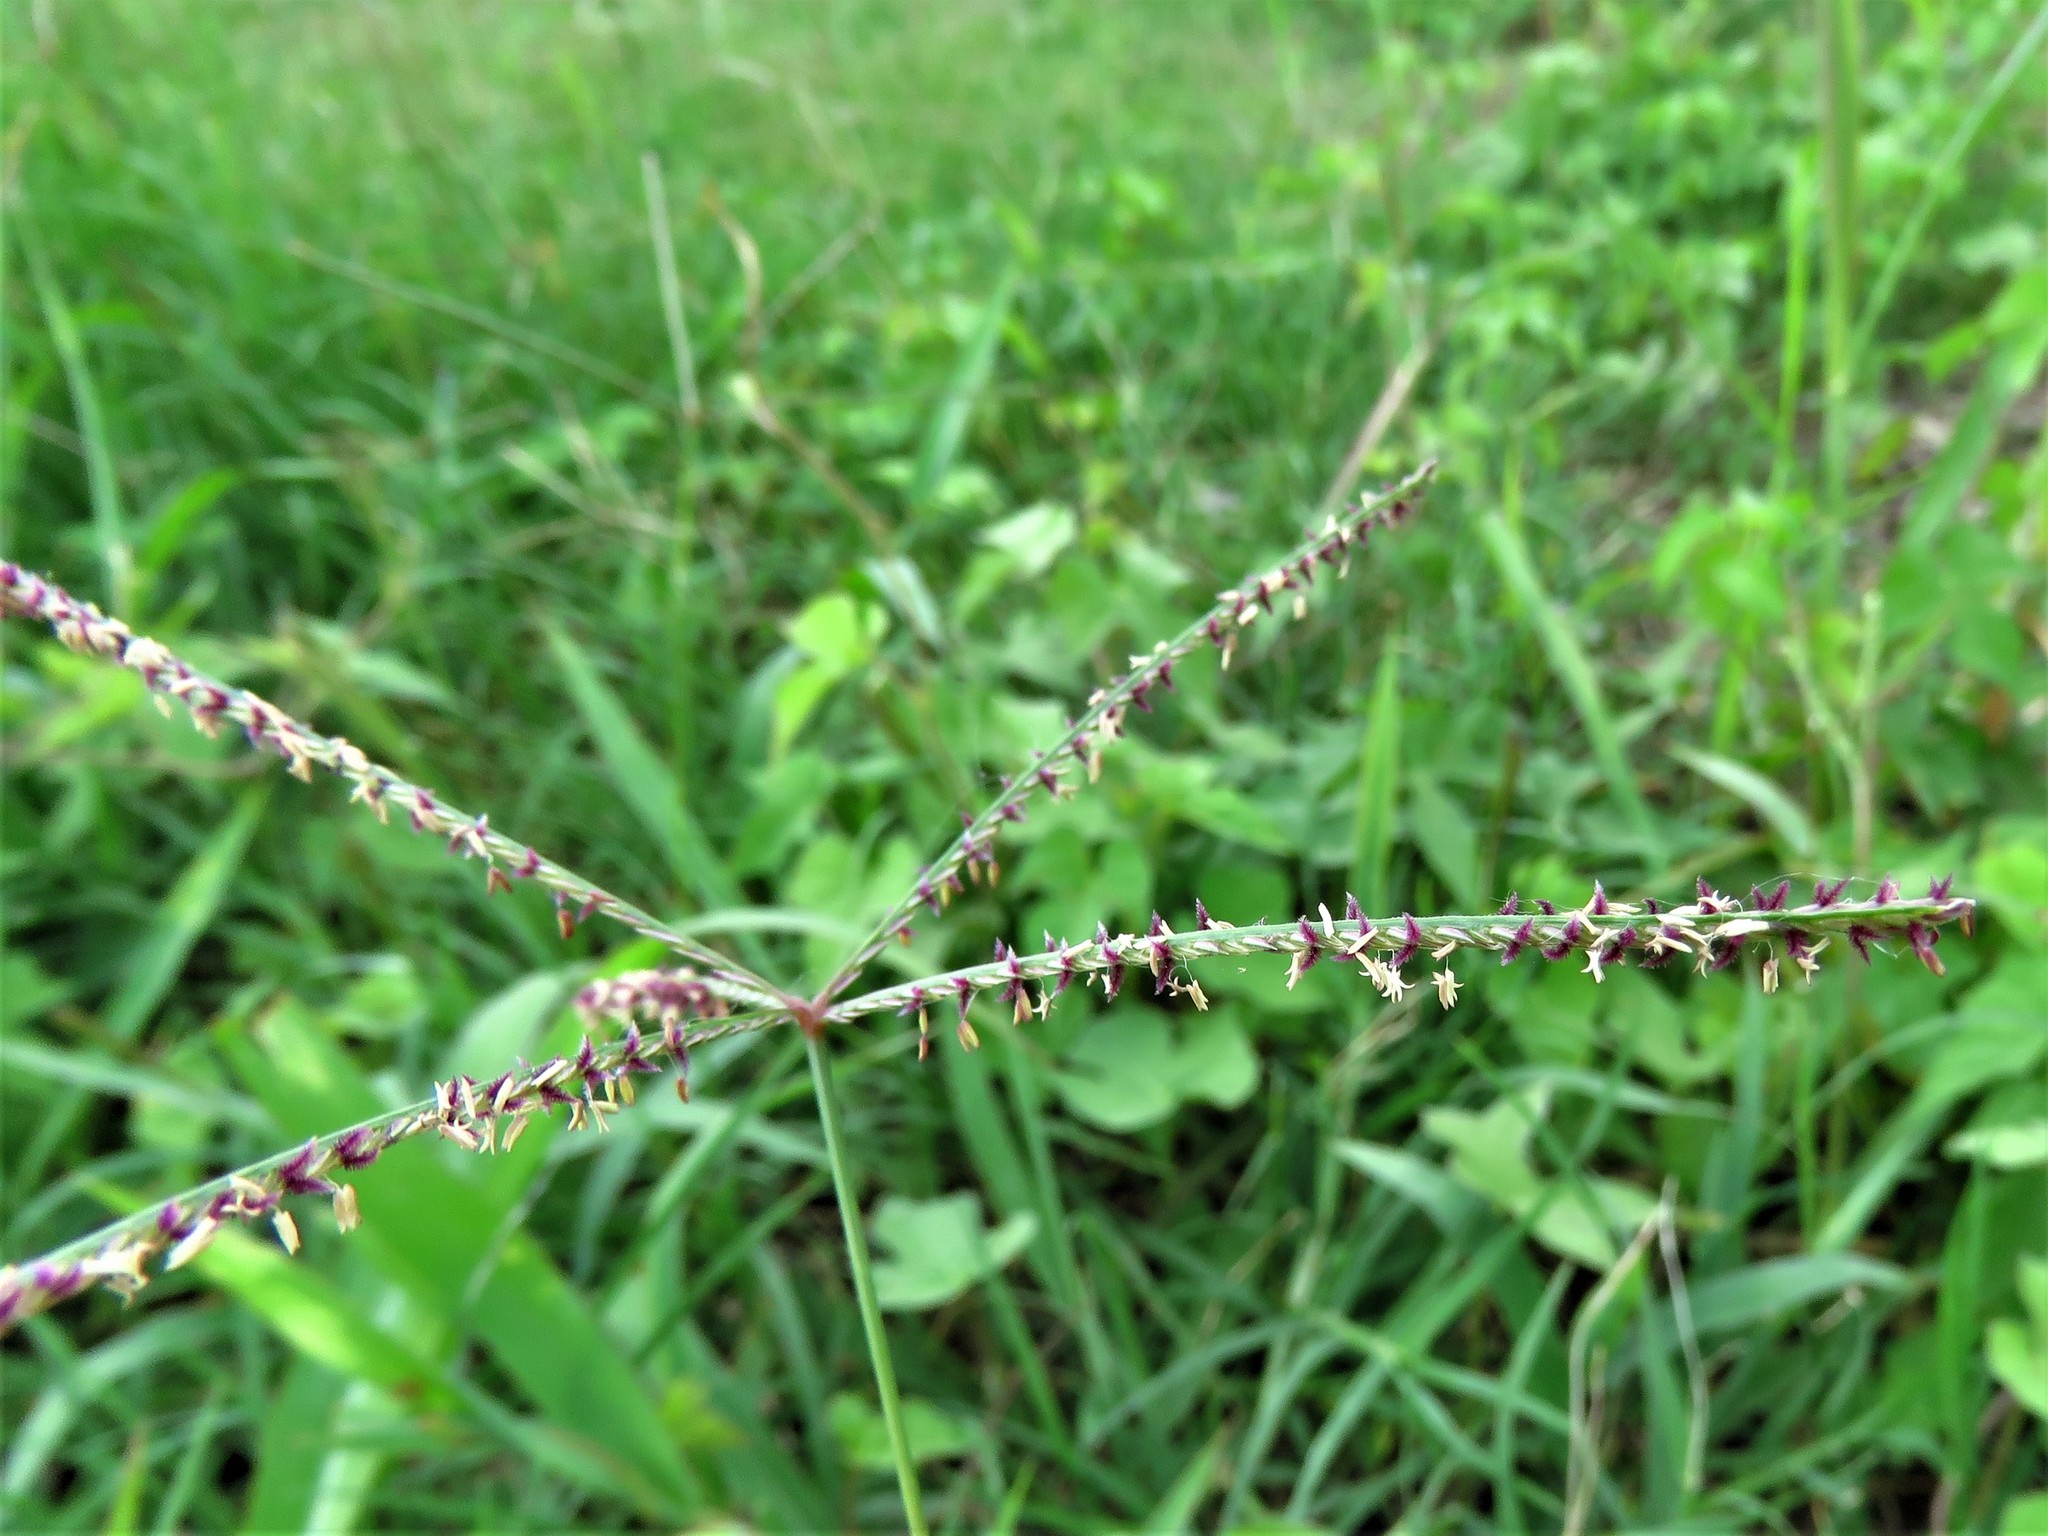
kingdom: Plantae
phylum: Tracheophyta
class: Liliopsida
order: Poales
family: Poaceae
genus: Cynodon
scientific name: Cynodon dactylon
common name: Bermuda grass
